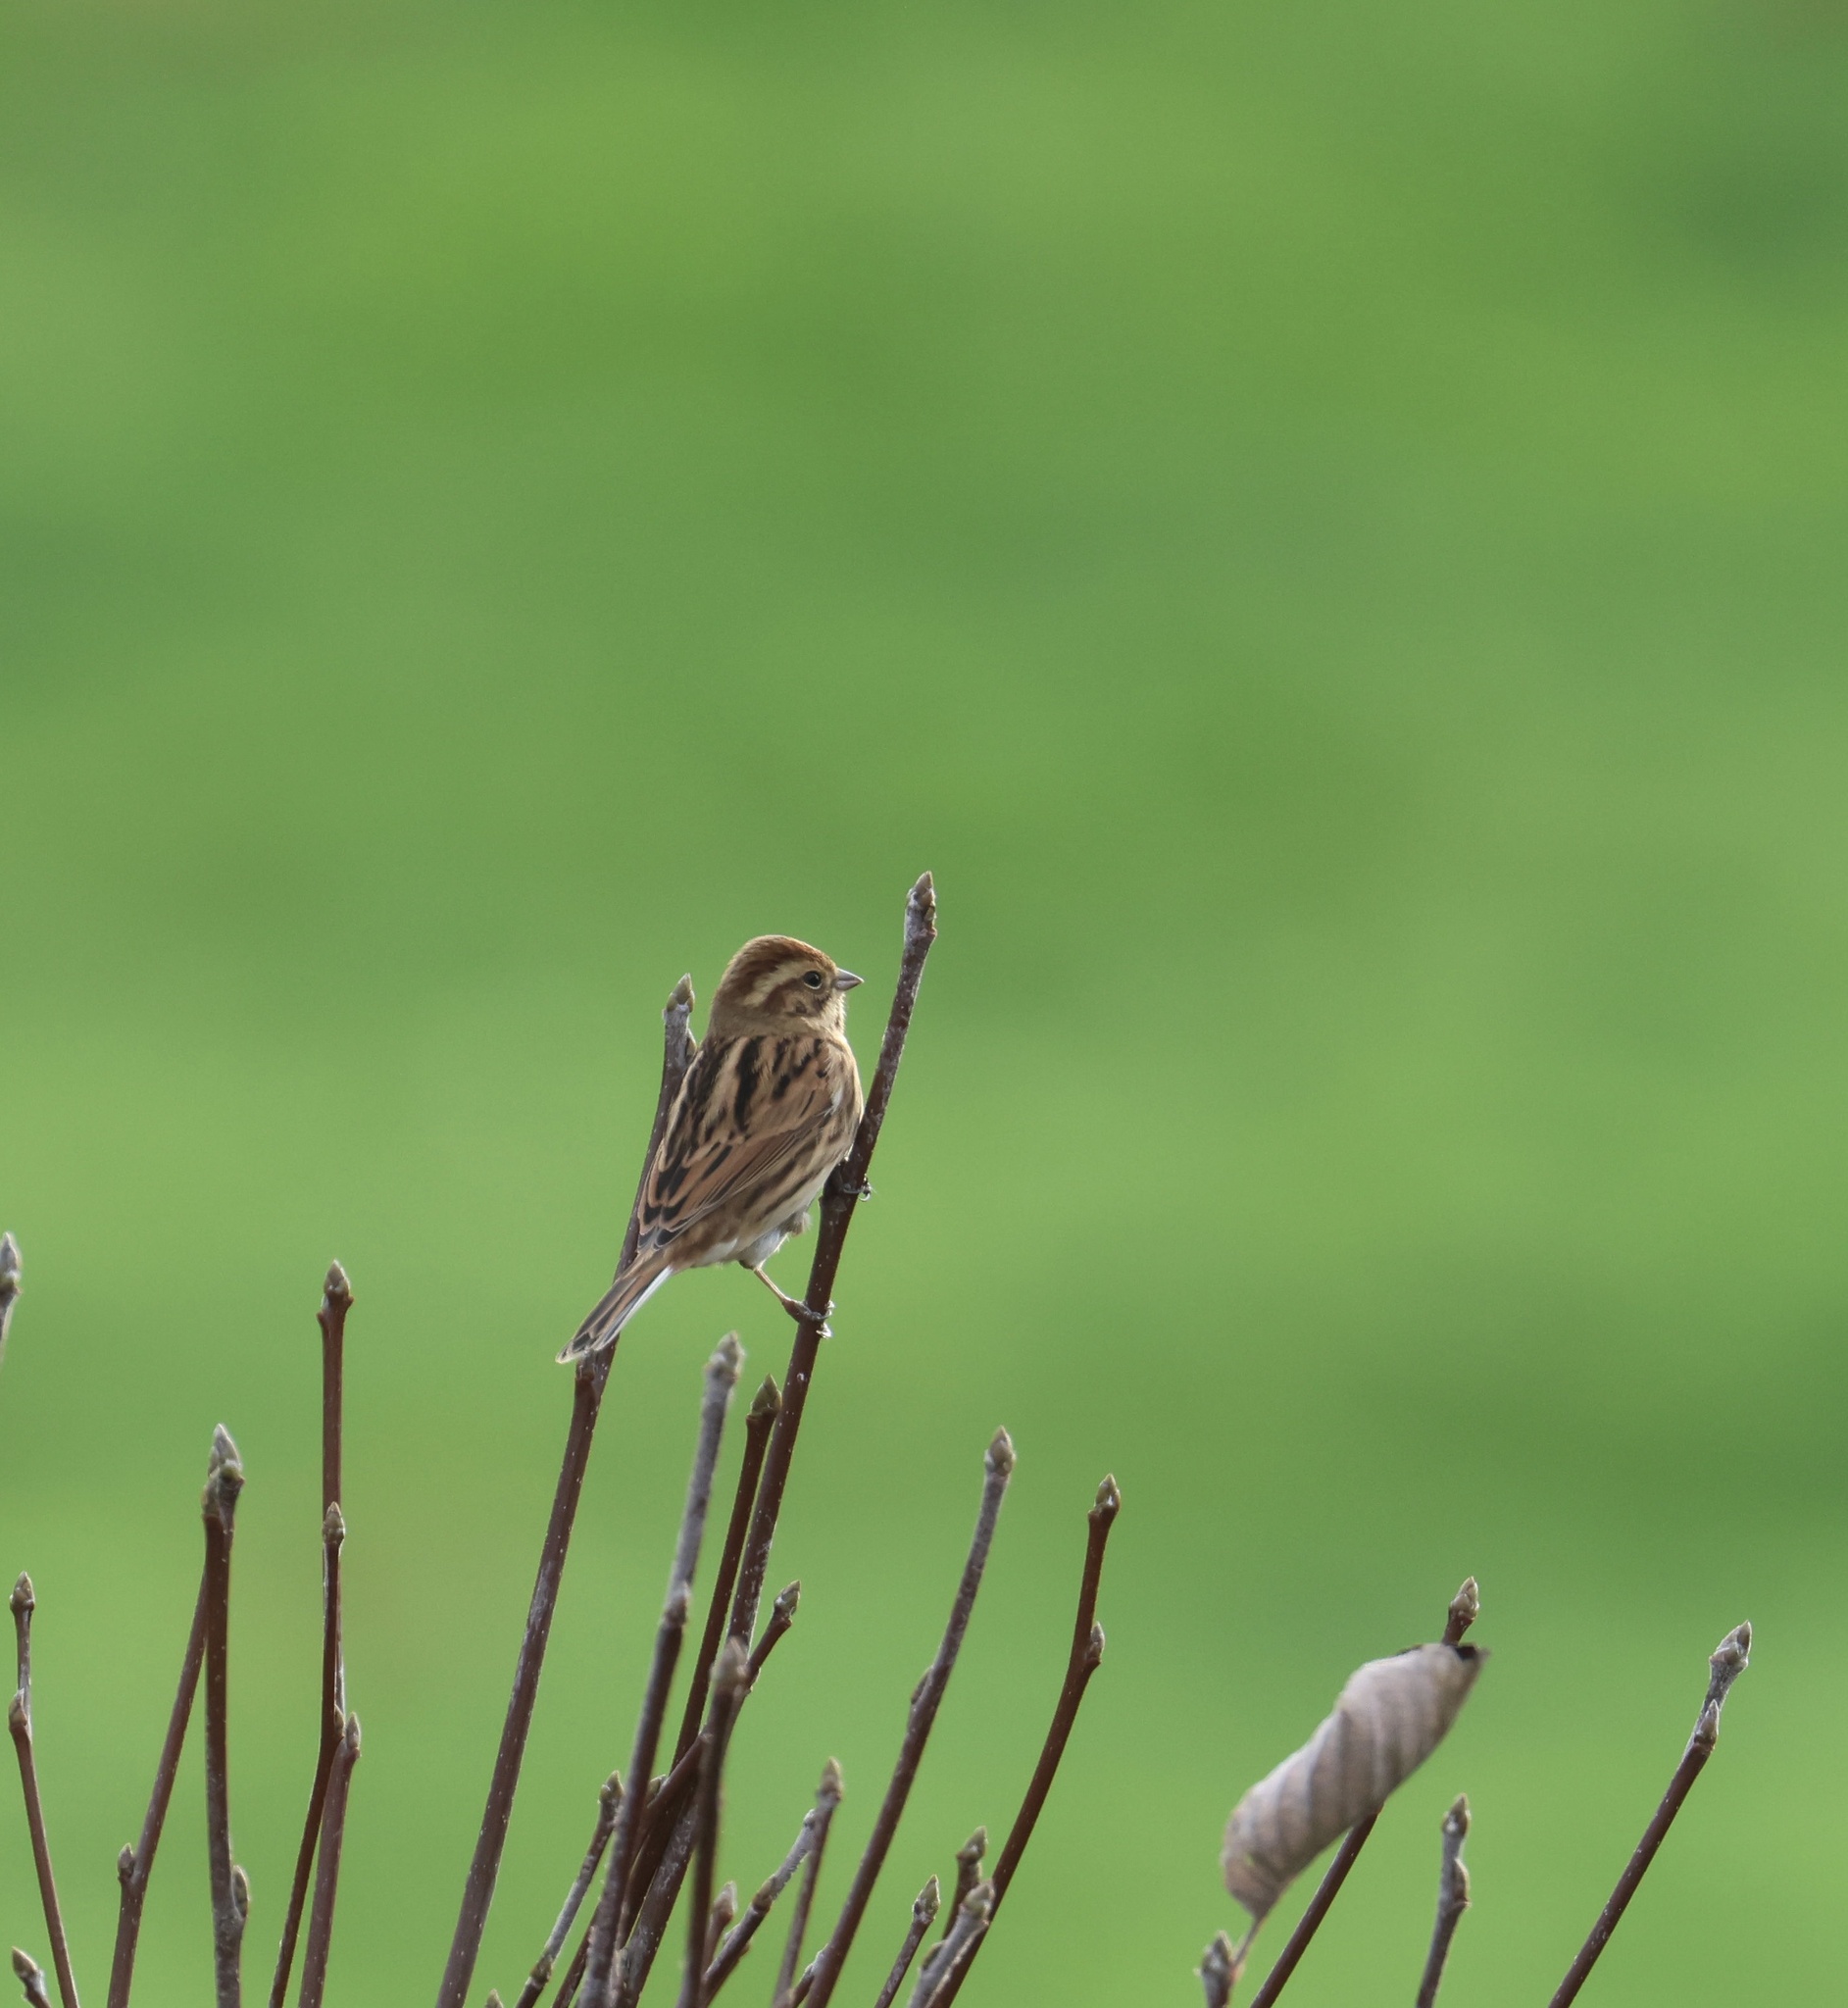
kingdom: Animalia
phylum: Chordata
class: Aves
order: Passeriformes
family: Emberizidae
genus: Emberiza
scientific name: Emberiza schoeniclus
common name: Reed bunting
